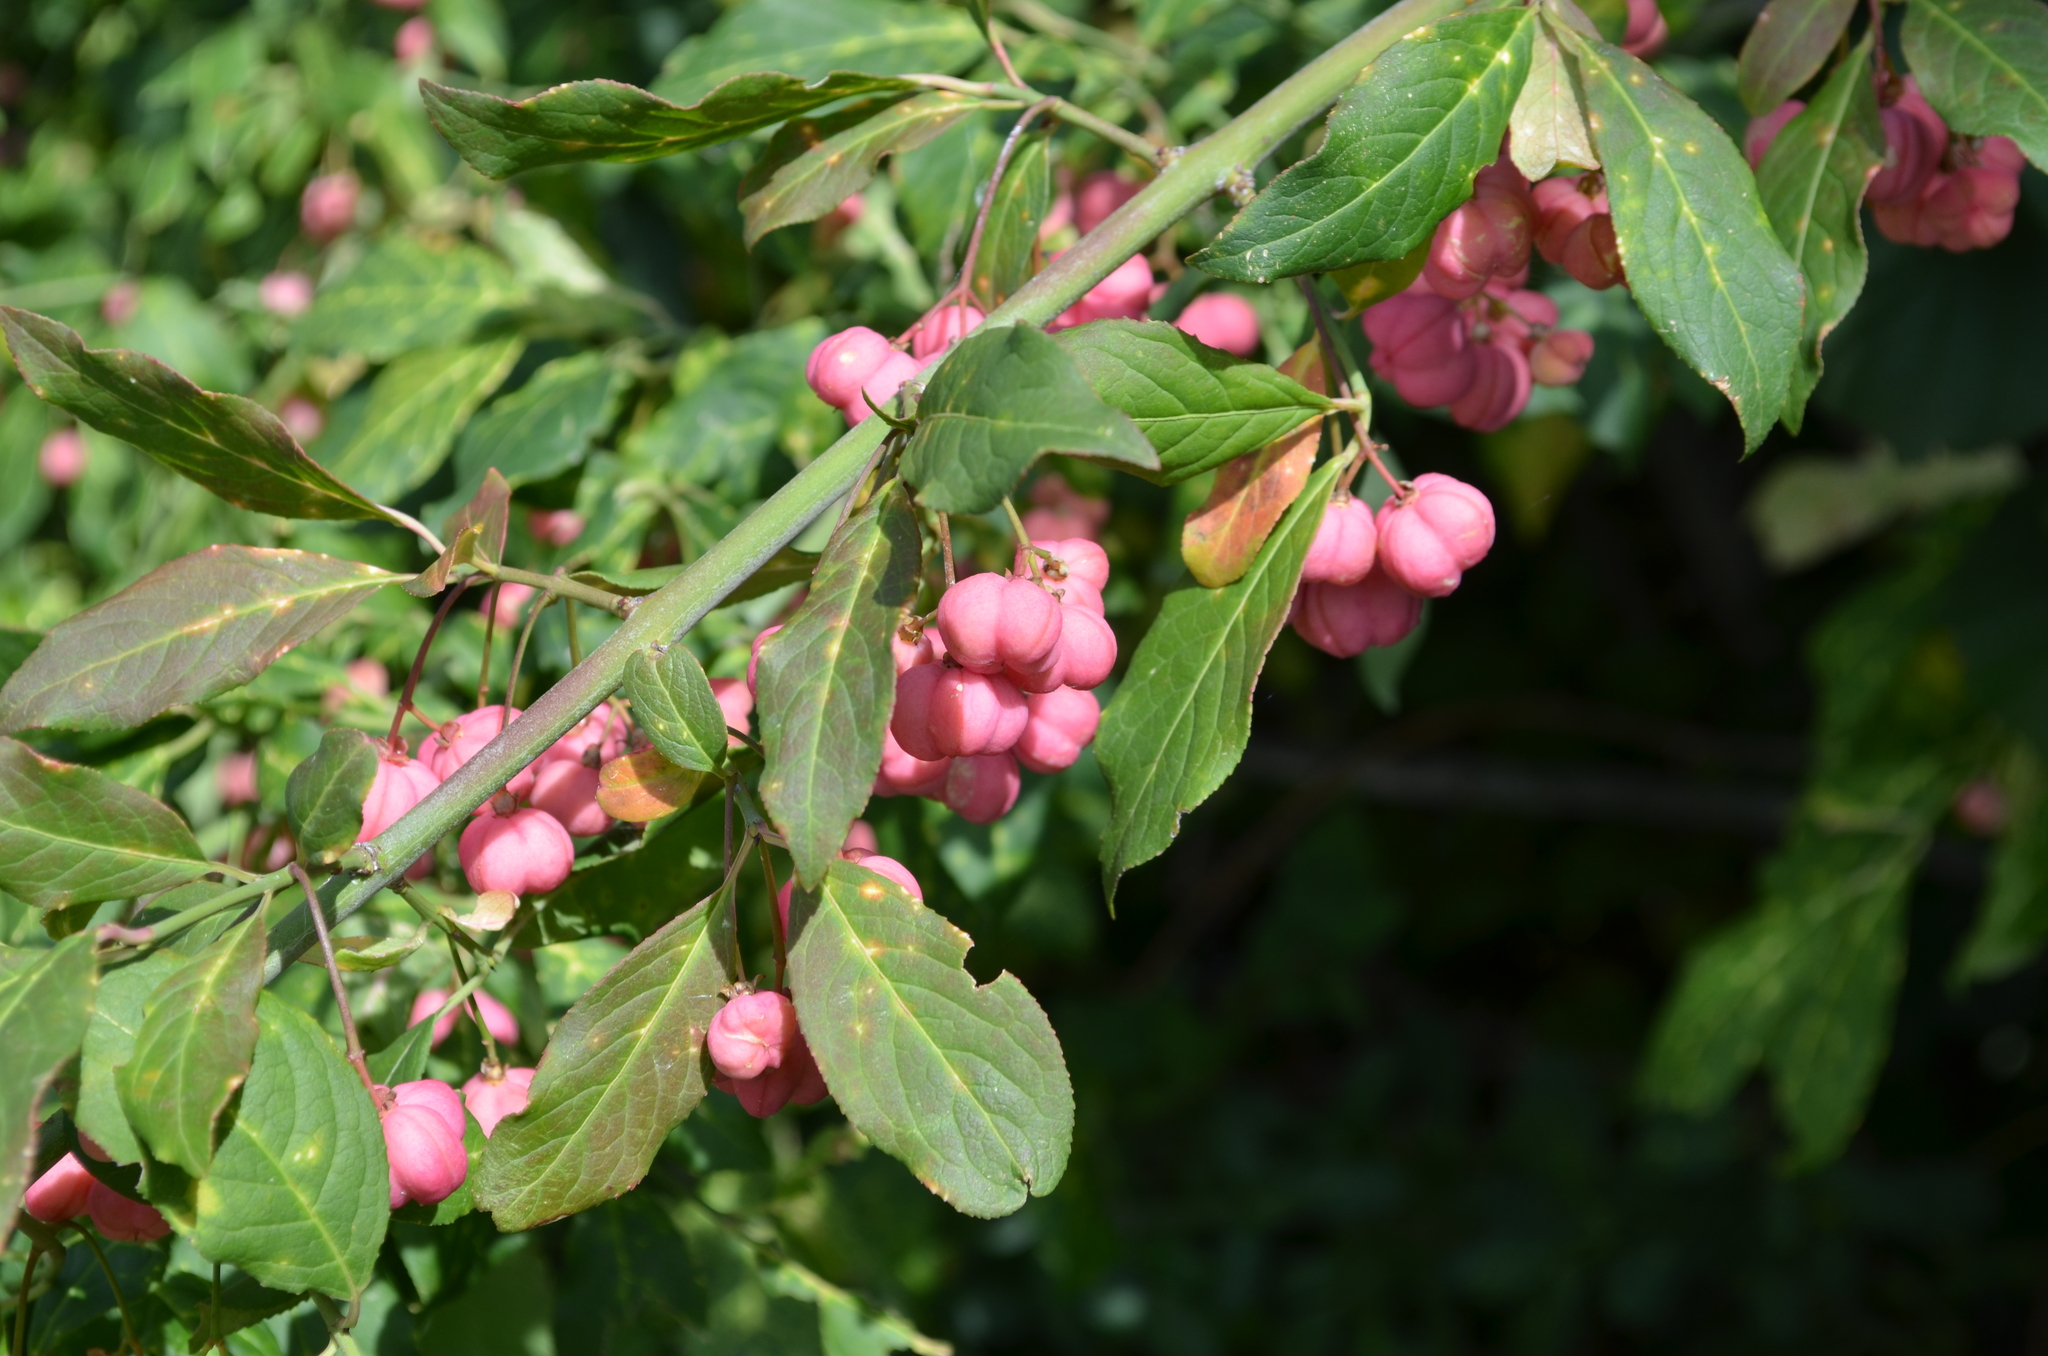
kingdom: Plantae
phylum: Tracheophyta
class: Magnoliopsida
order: Celastrales
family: Celastraceae
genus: Euonymus
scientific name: Euonymus europaeus
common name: Spindle
